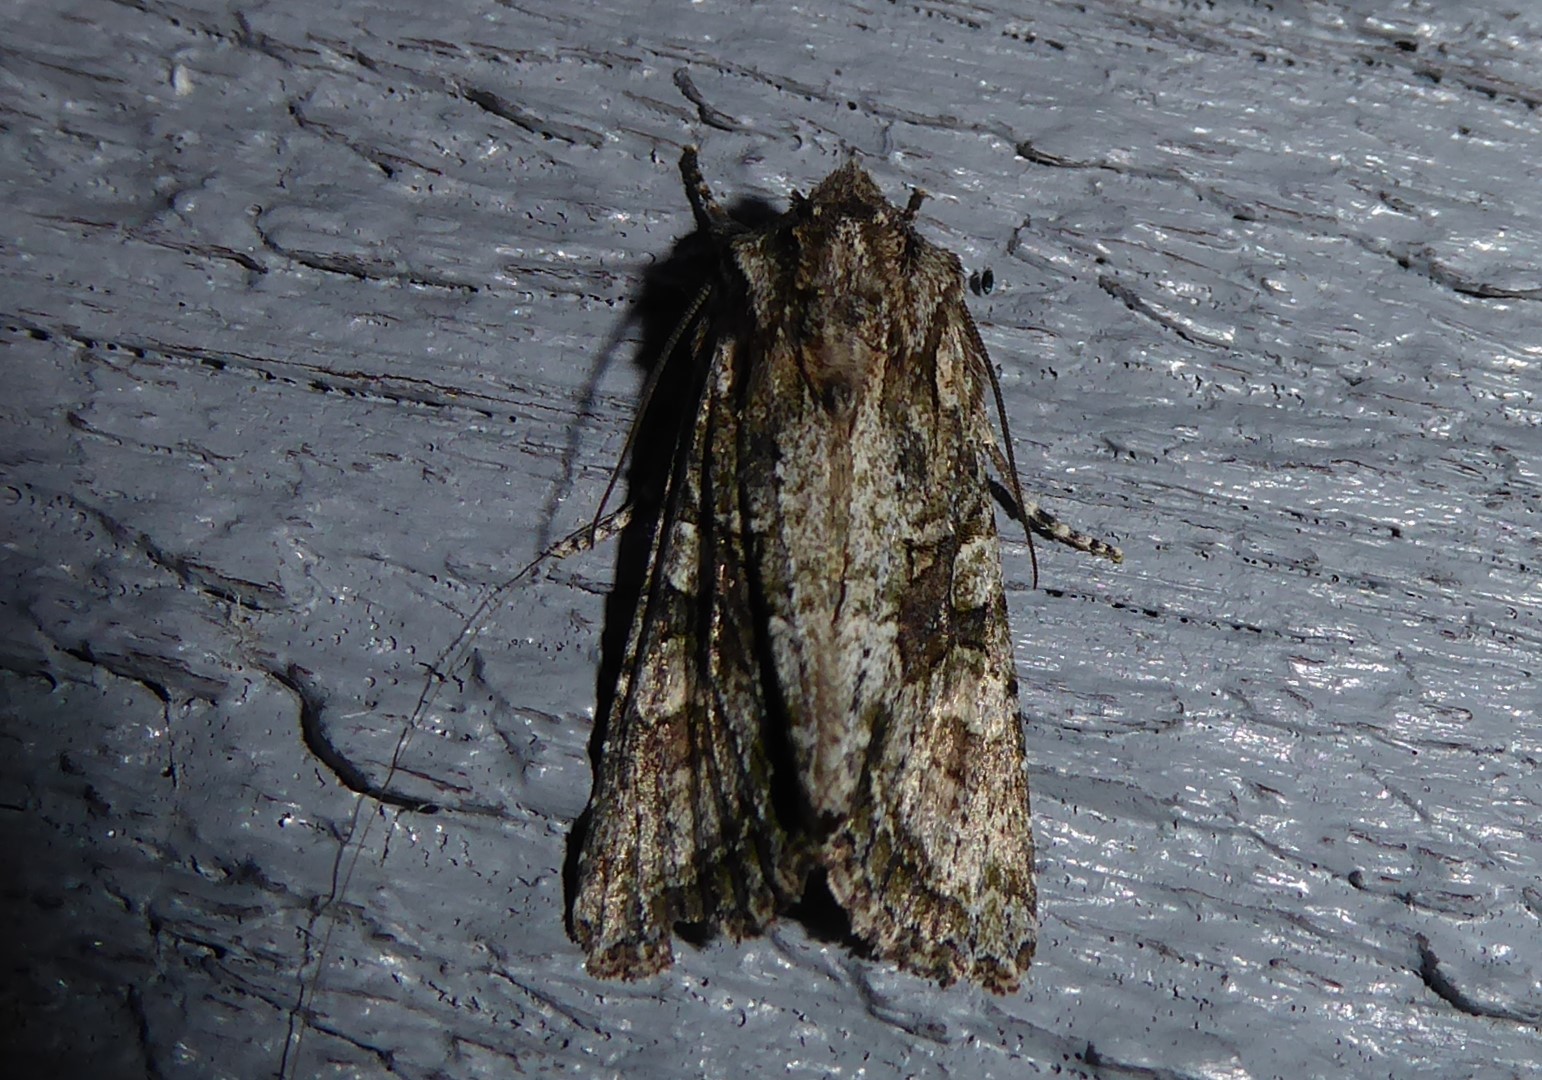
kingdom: Animalia
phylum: Arthropoda
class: Insecta
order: Lepidoptera
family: Noctuidae
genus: Ichneutica
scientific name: Ichneutica mutans
